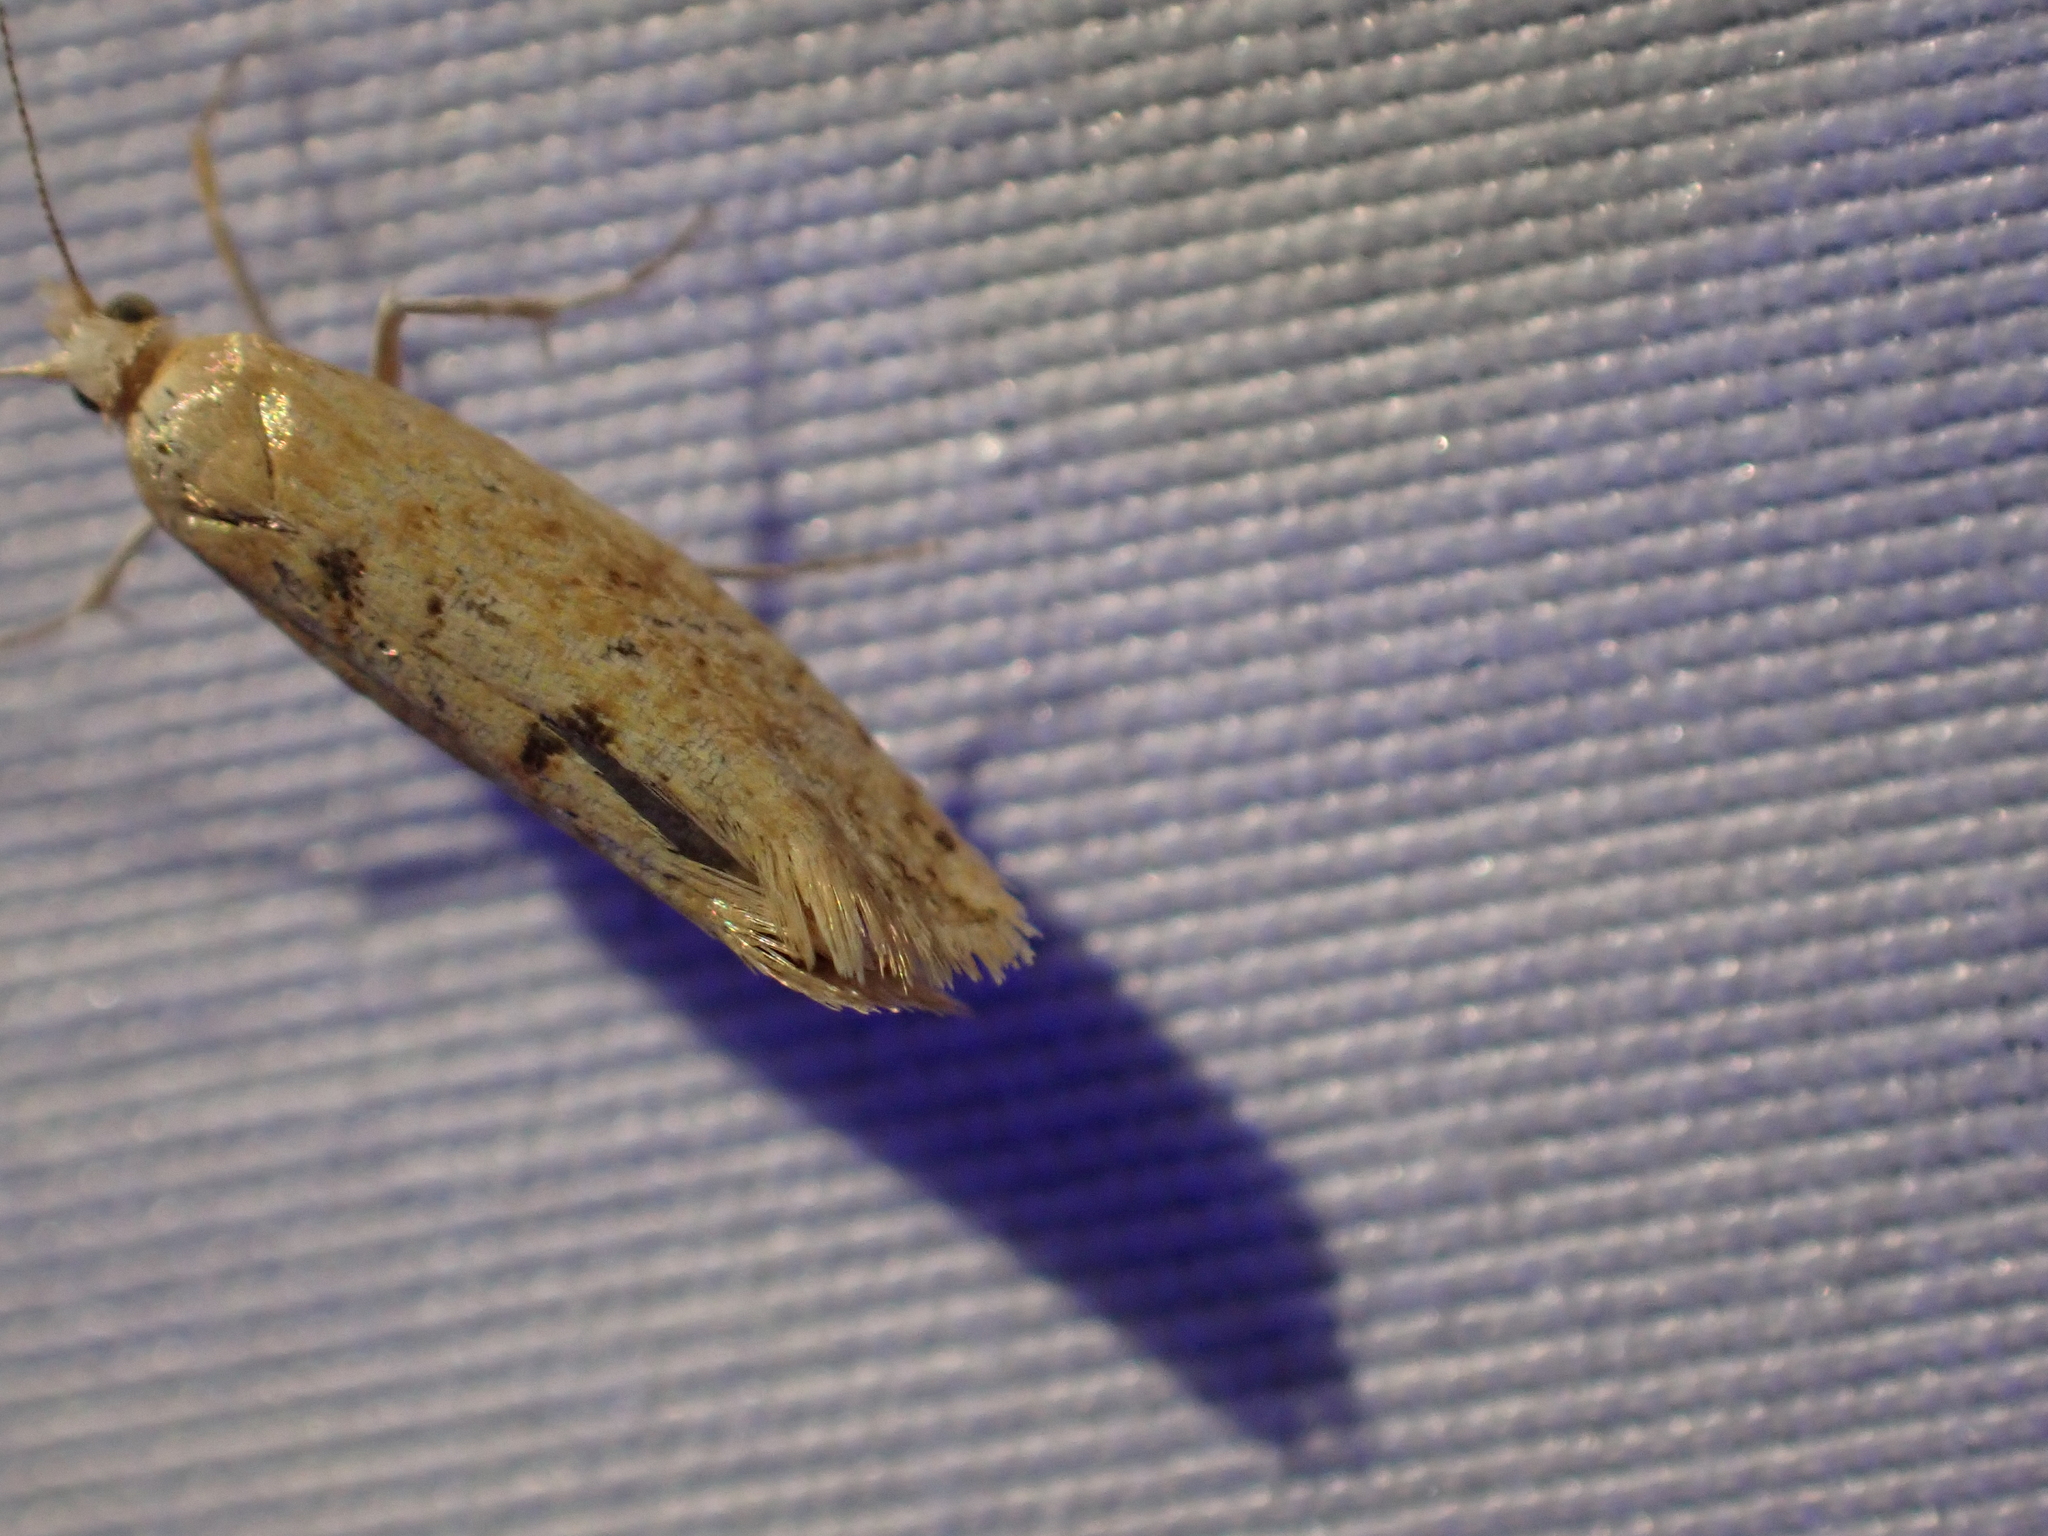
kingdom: Animalia
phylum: Arthropoda
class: Insecta
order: Lepidoptera
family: Ypsolophidae
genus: Ypsolopha
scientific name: Ypsolopha cervella
